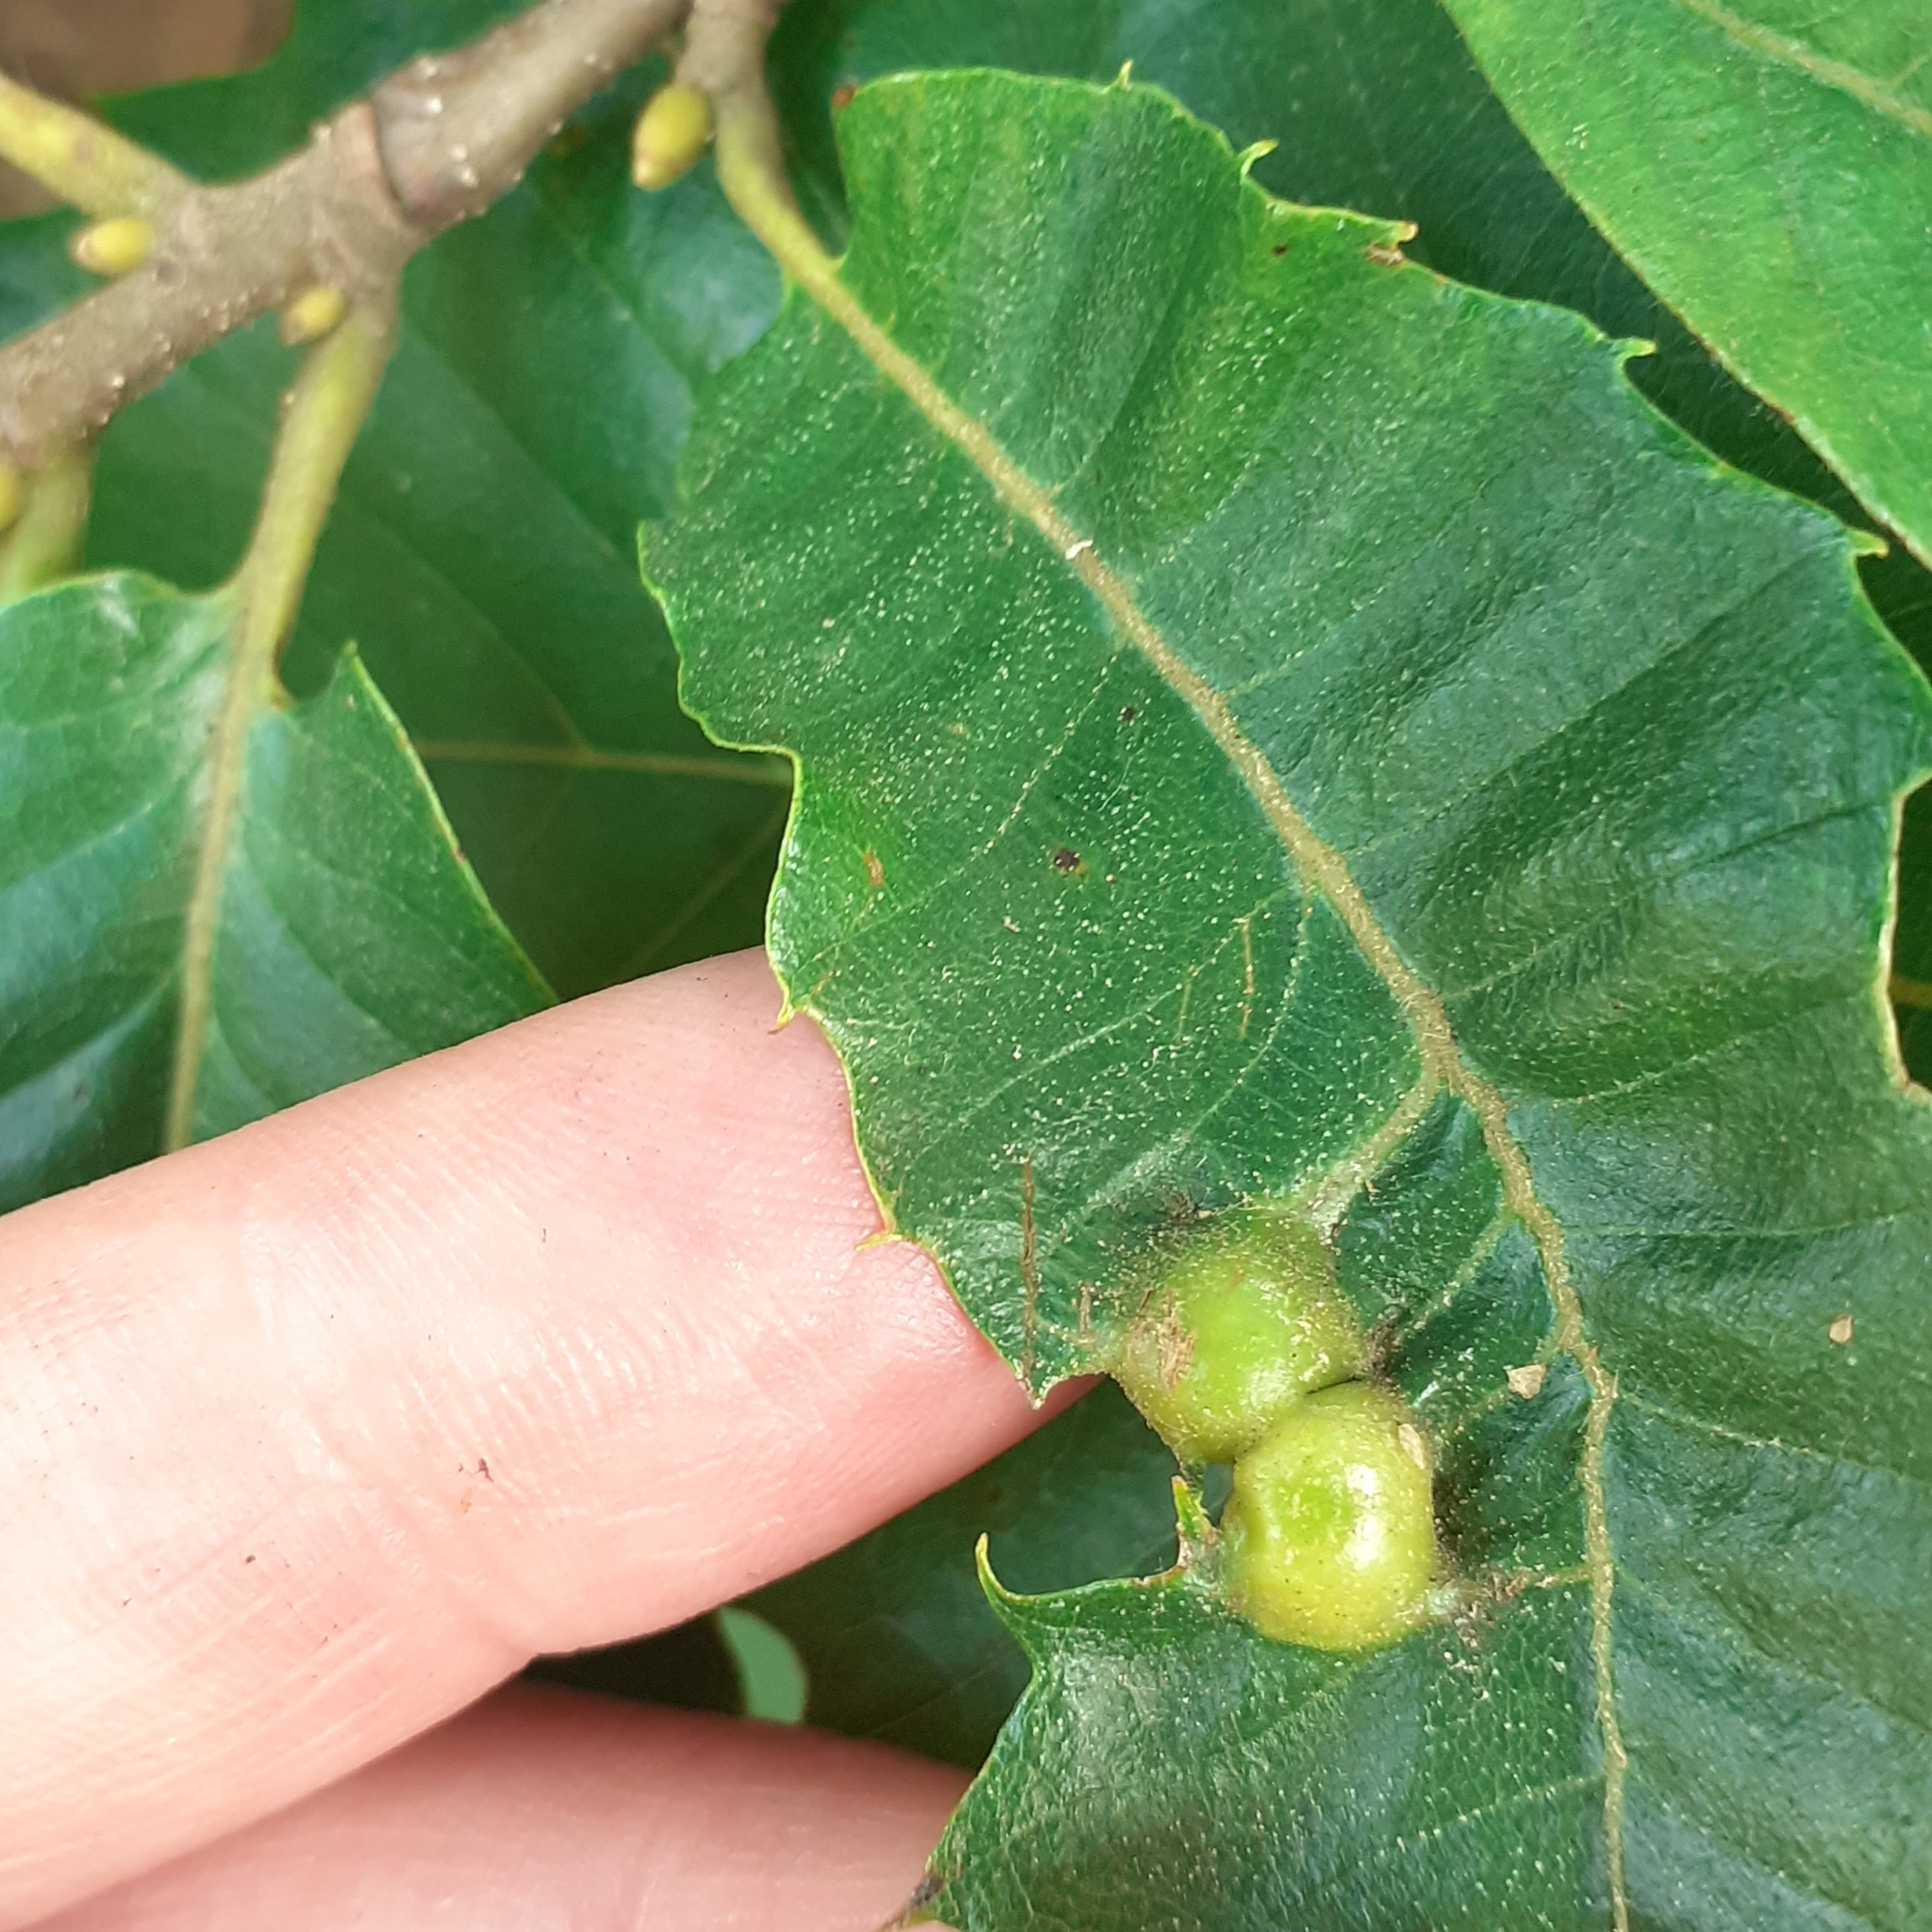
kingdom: Animalia
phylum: Arthropoda
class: Insecta
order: Hymenoptera
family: Cynipidae
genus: Dryocosmus
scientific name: Dryocosmus kuriphilus
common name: Asian chestnut gall wasp
